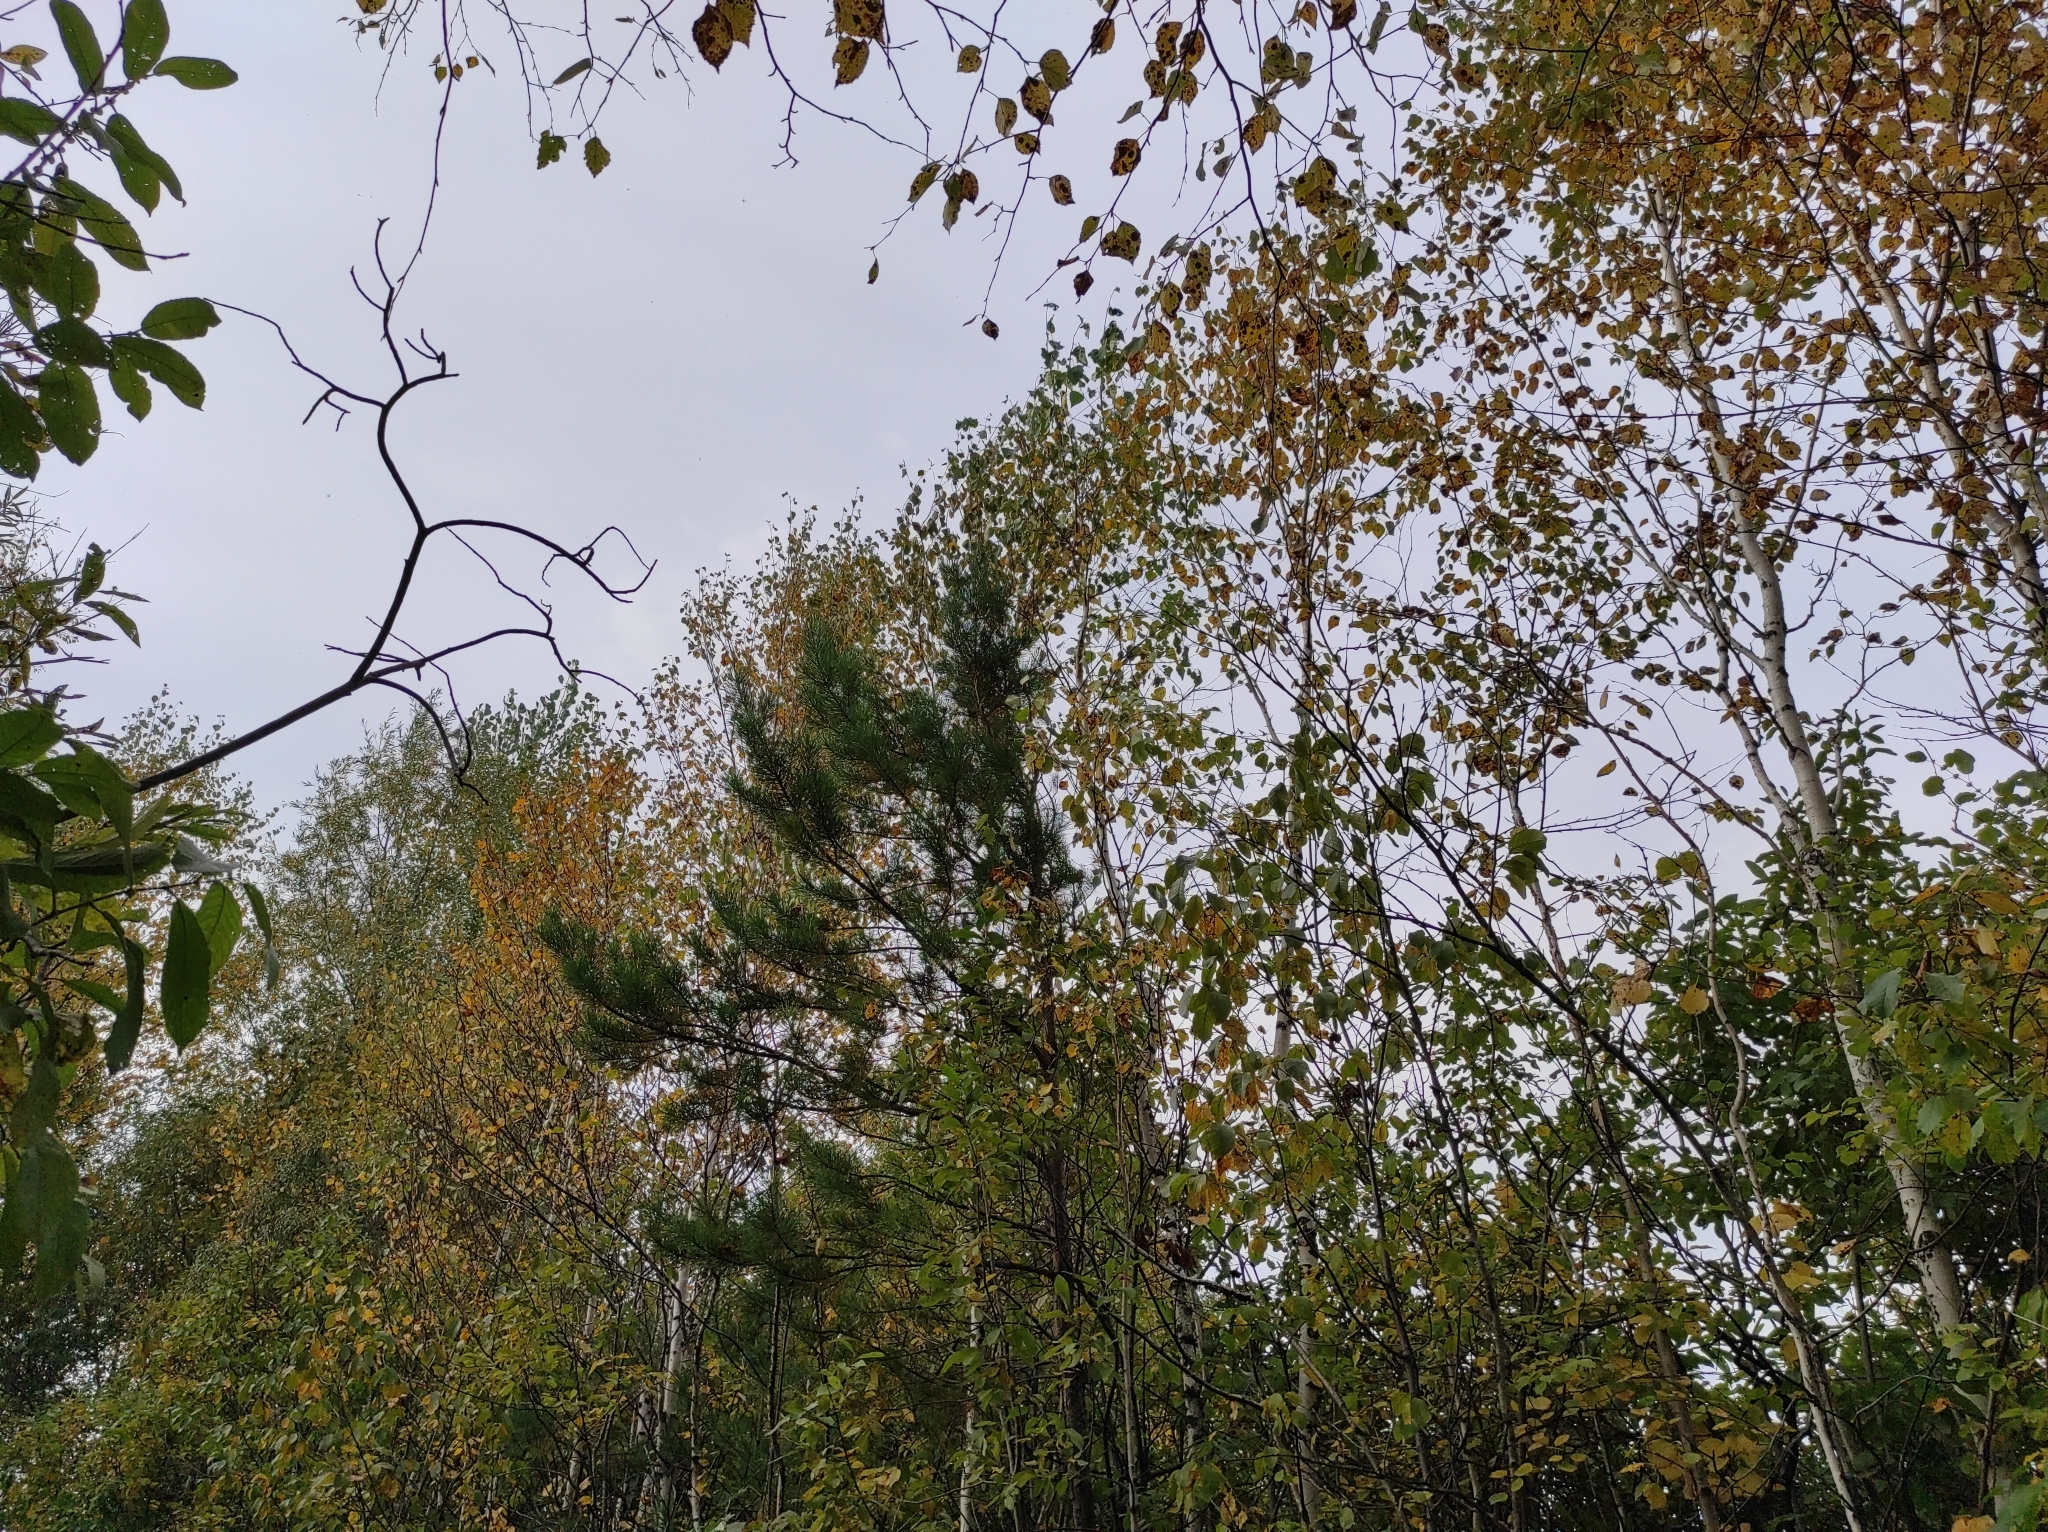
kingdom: Plantae
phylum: Tracheophyta
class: Pinopsida
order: Pinales
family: Pinaceae
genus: Pinus
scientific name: Pinus sylvestris
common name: Scots pine
